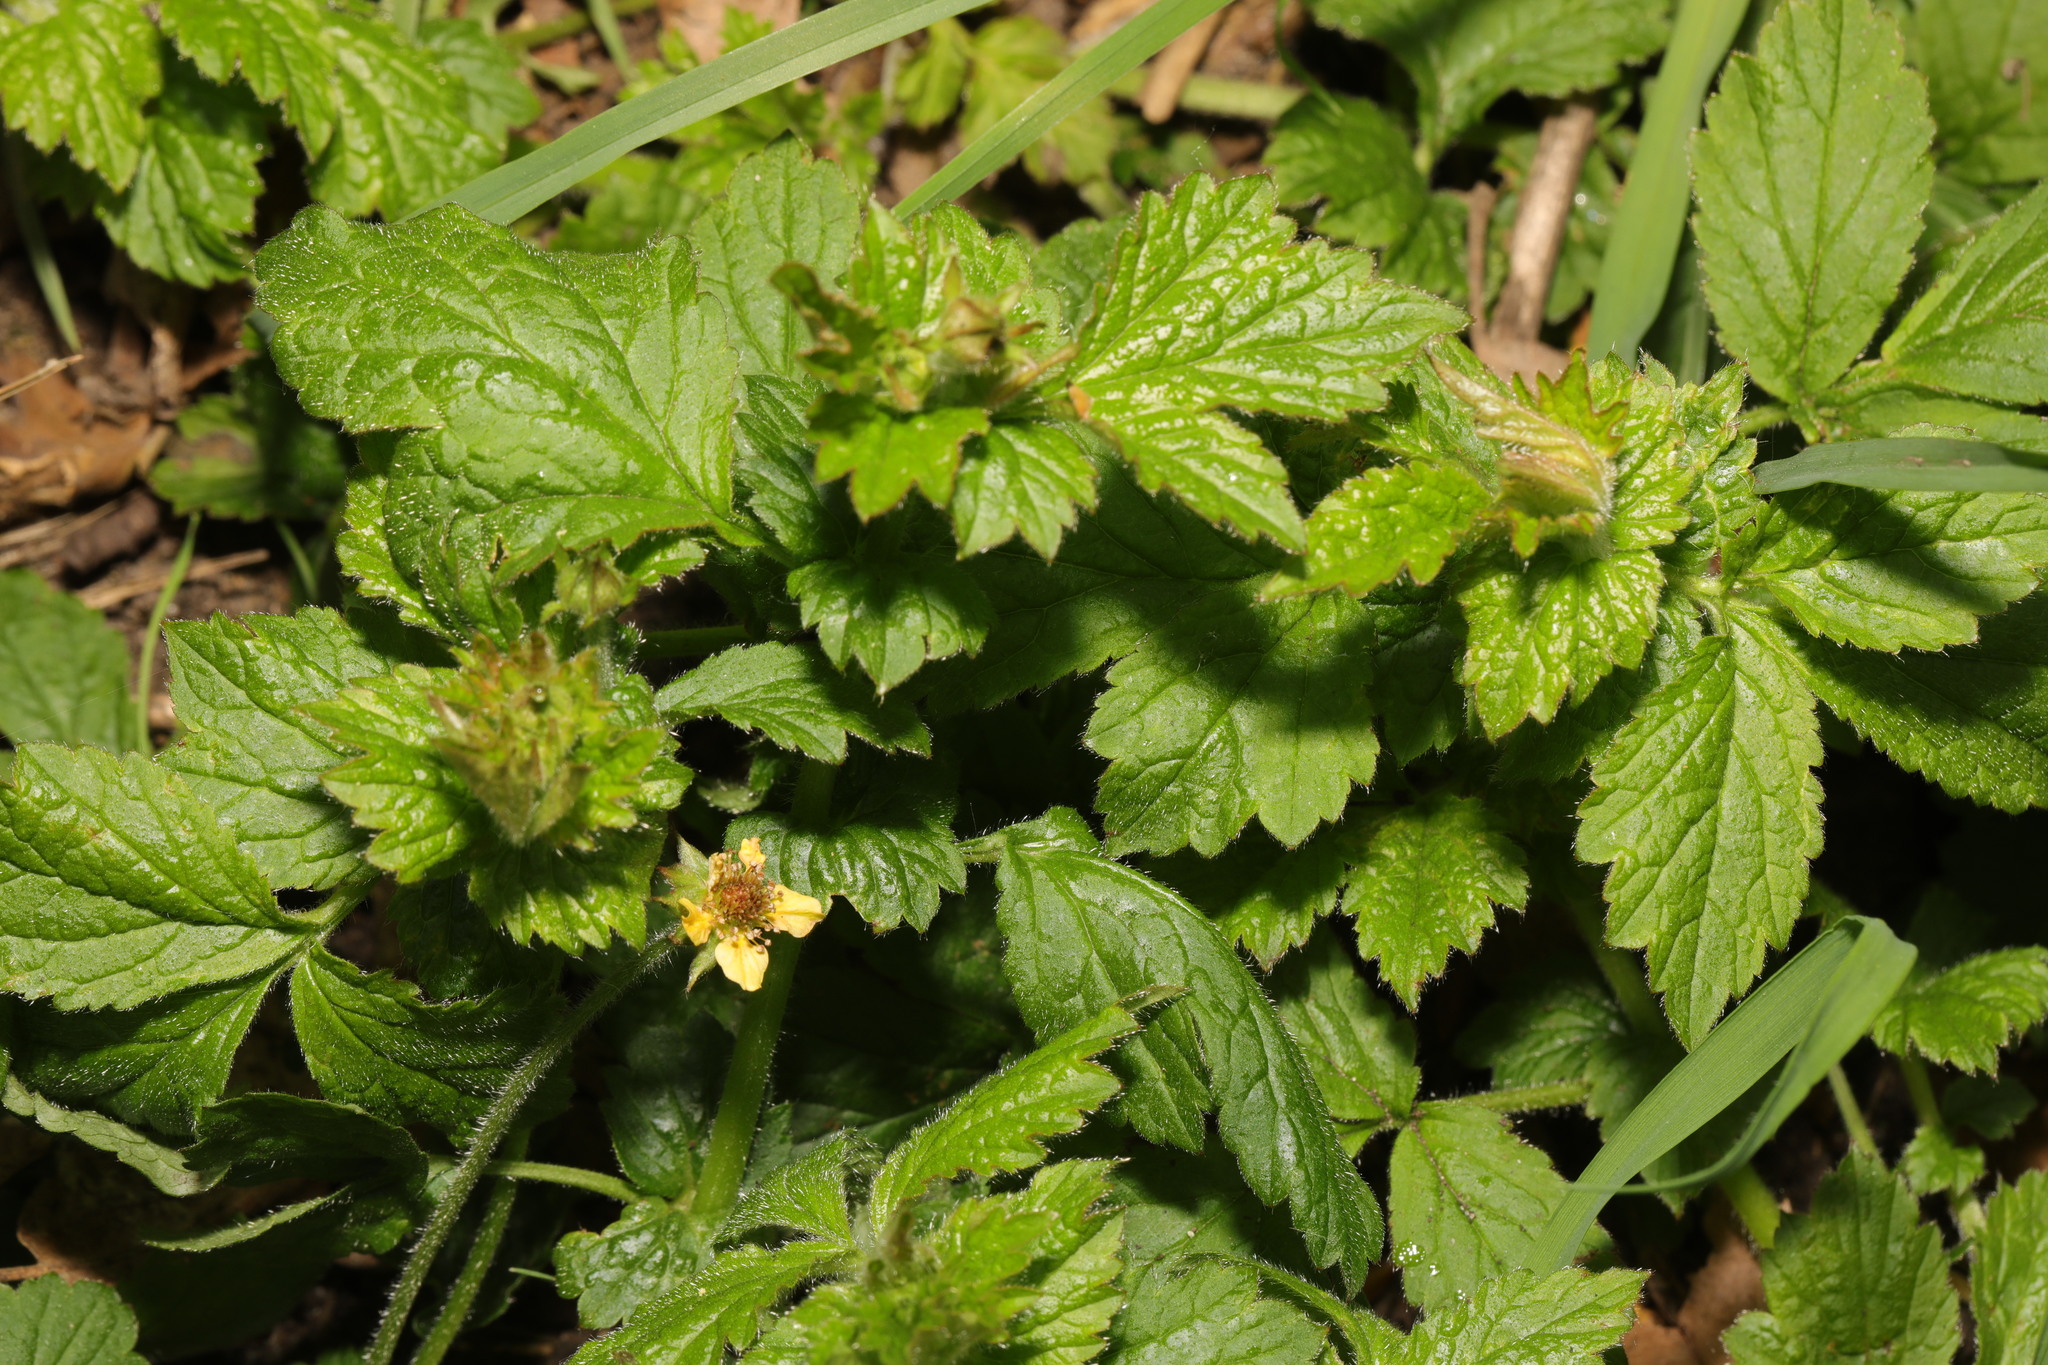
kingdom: Plantae
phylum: Tracheophyta
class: Magnoliopsida
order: Rosales
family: Rosaceae
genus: Geum
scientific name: Geum urbanum
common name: Wood avens
